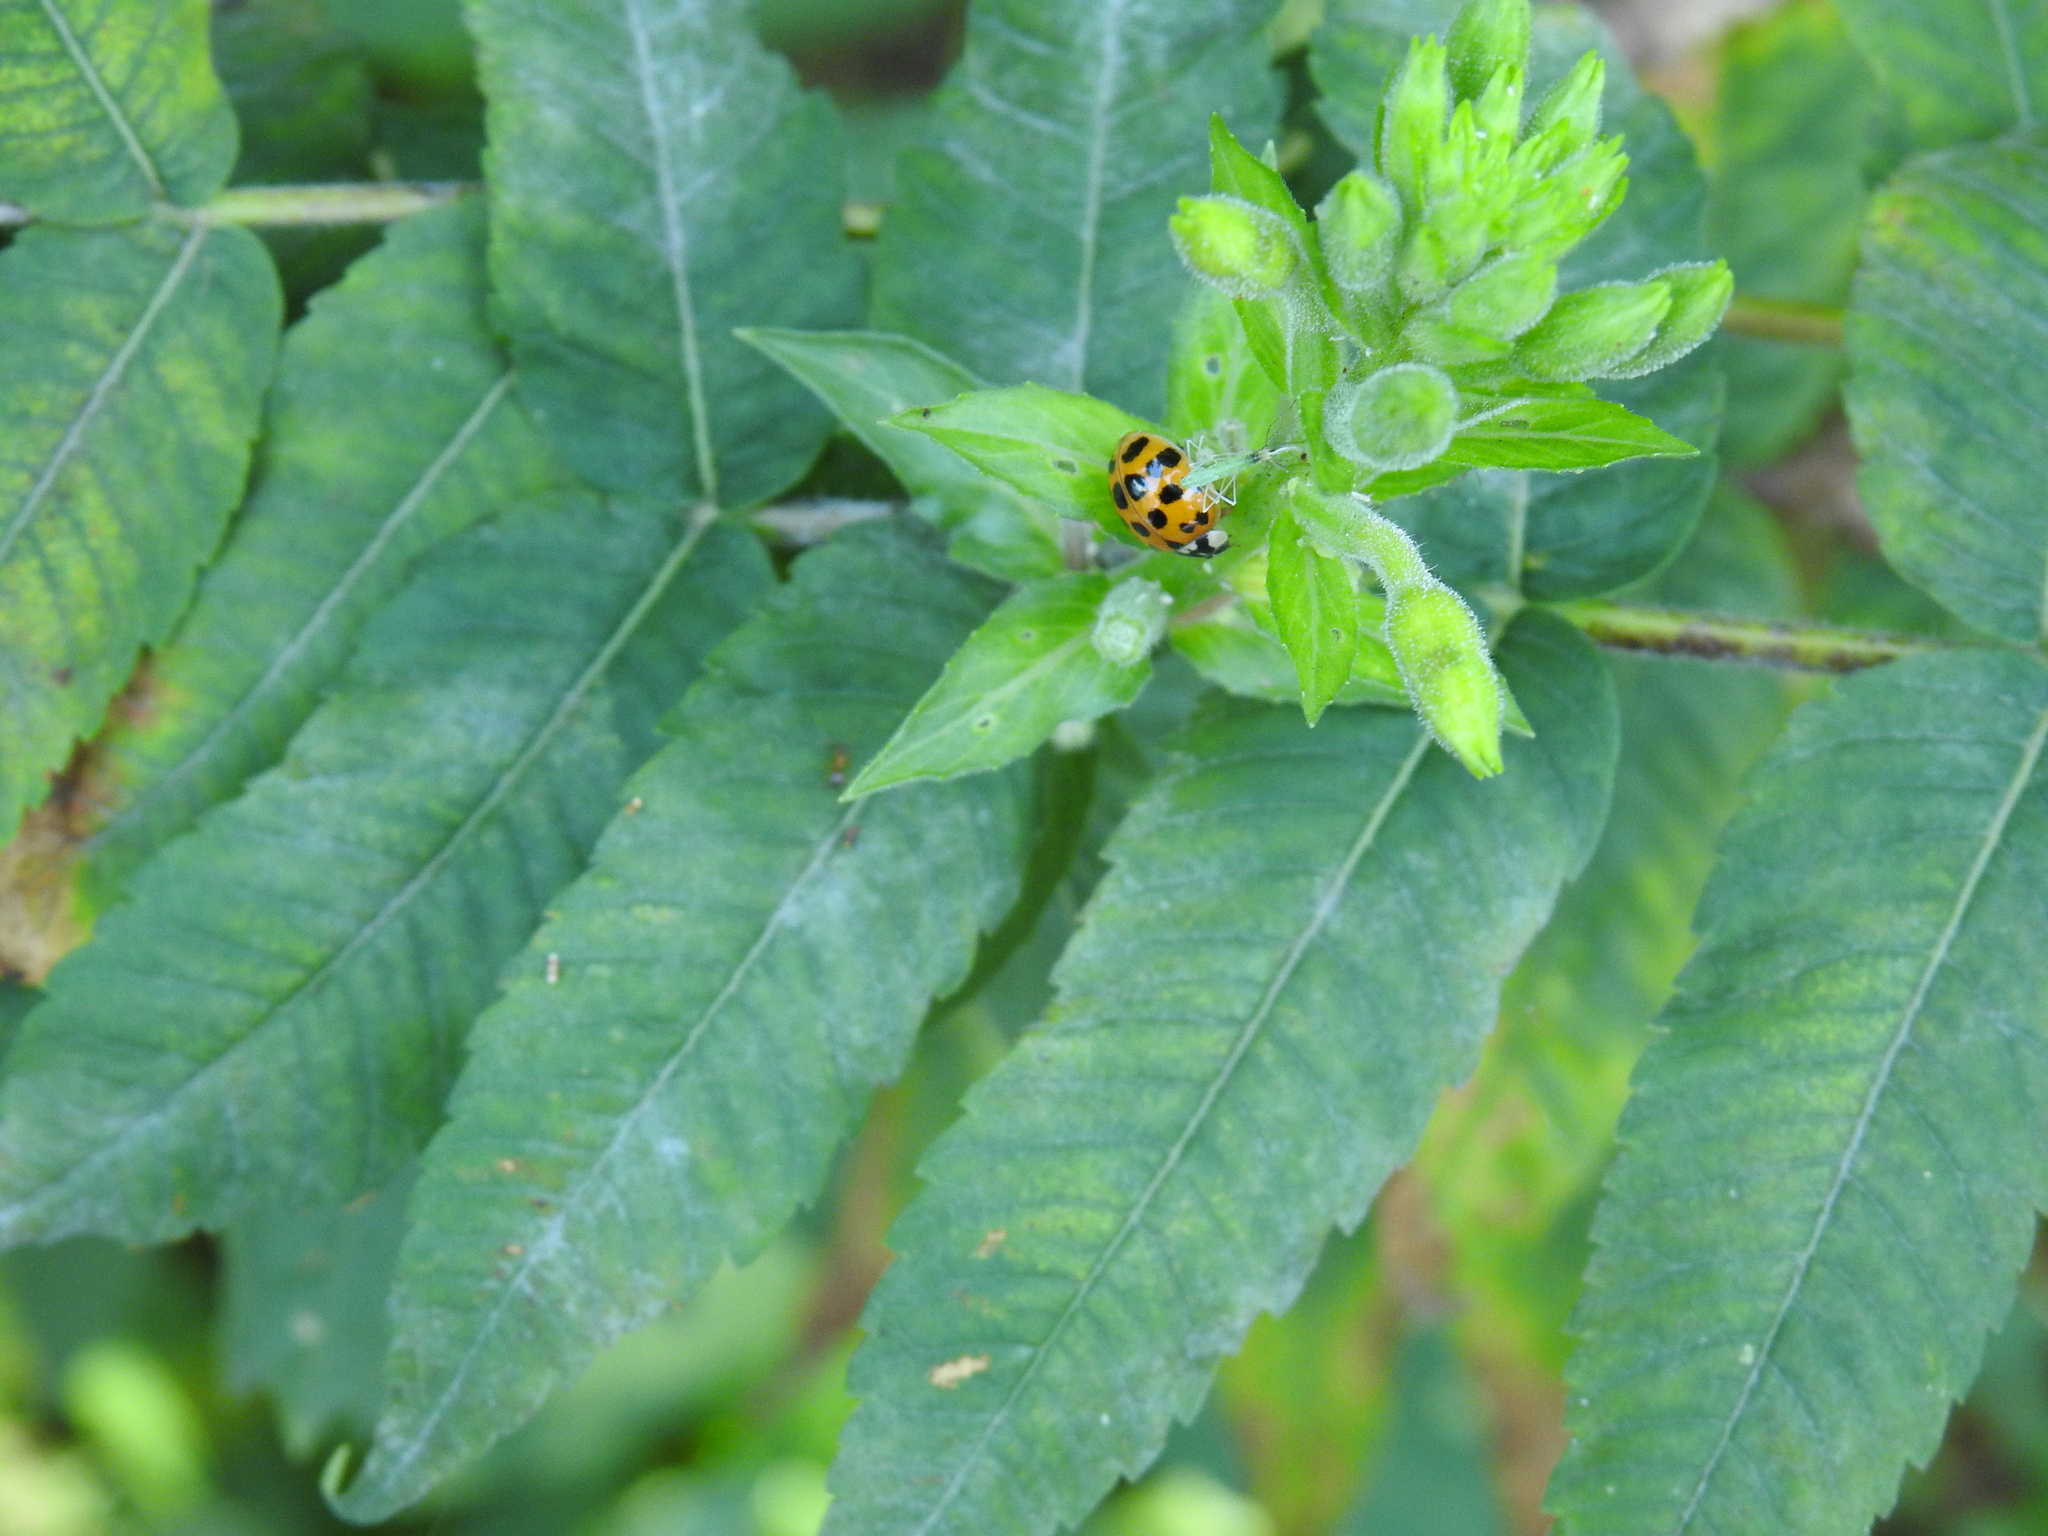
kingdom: Animalia
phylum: Arthropoda
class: Insecta
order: Coleoptera
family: Coccinellidae
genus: Harmonia
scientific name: Harmonia axyridis
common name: Harlequin ladybird
